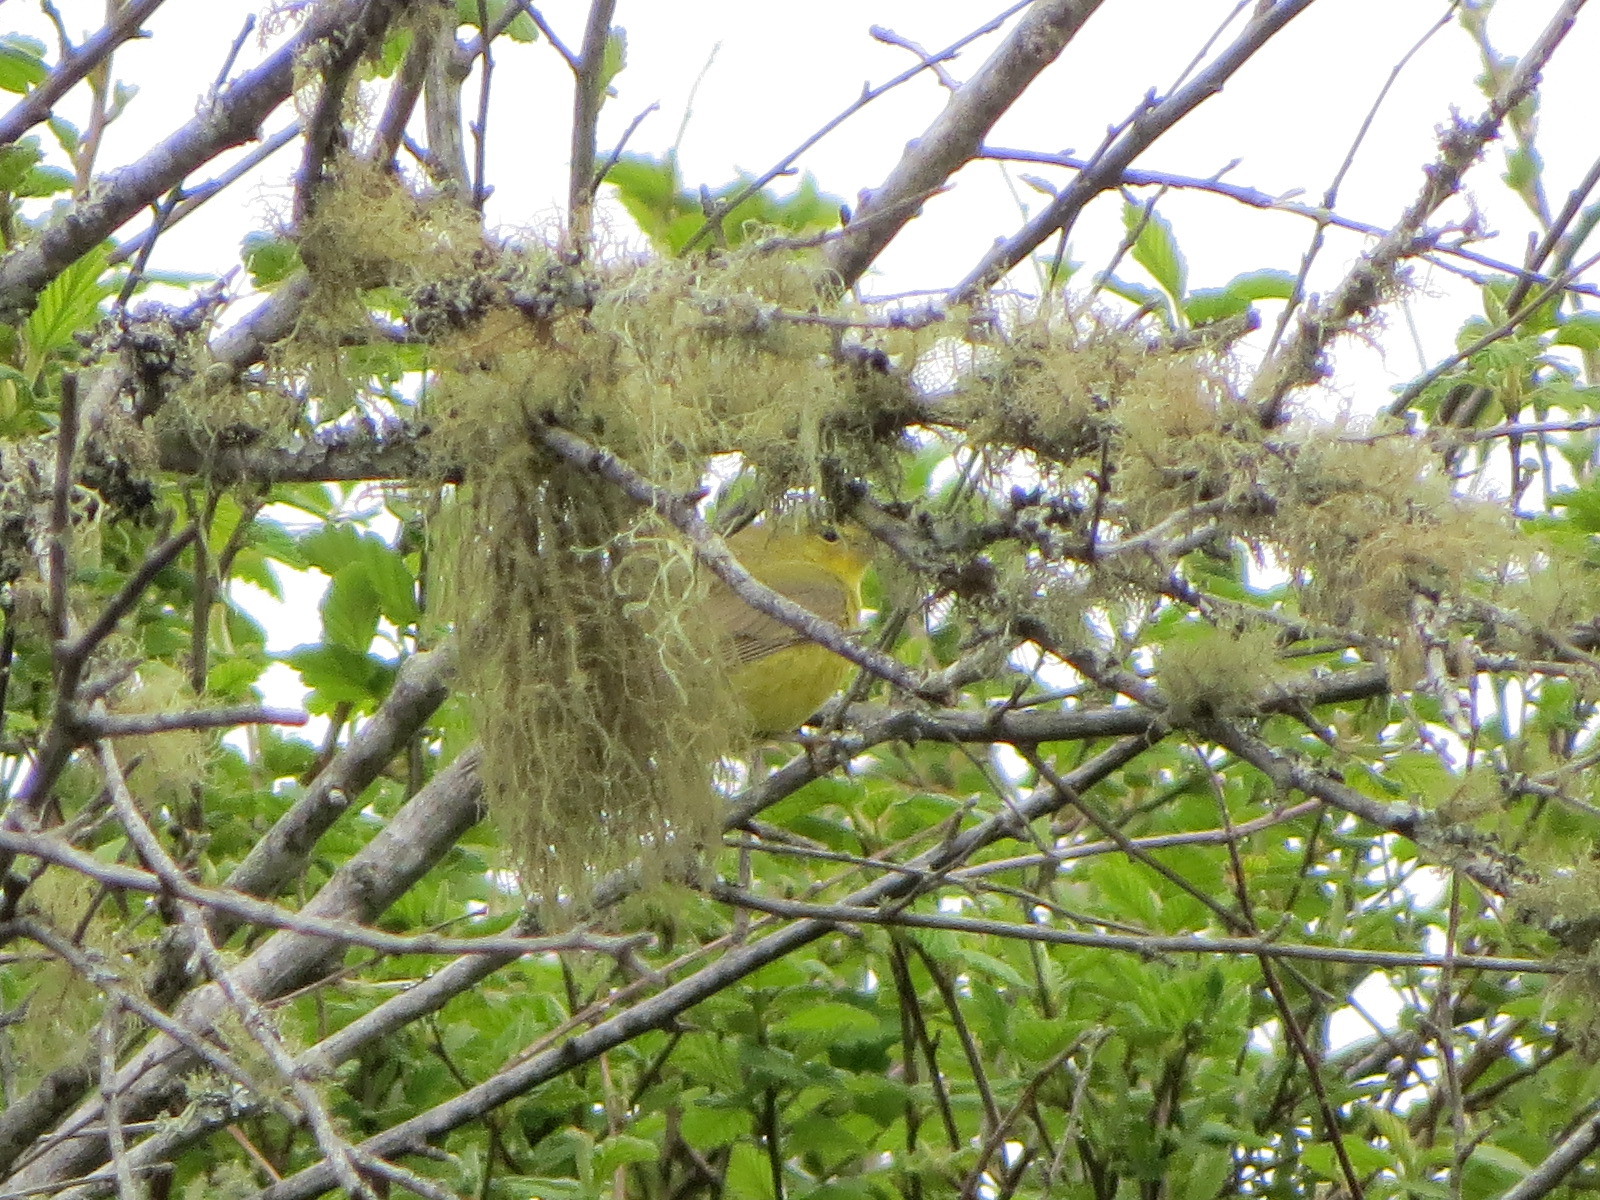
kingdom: Animalia
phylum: Chordata
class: Aves
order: Passeriformes
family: Parulidae
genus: Leiothlypis
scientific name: Leiothlypis celata
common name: Orange-crowned warbler
